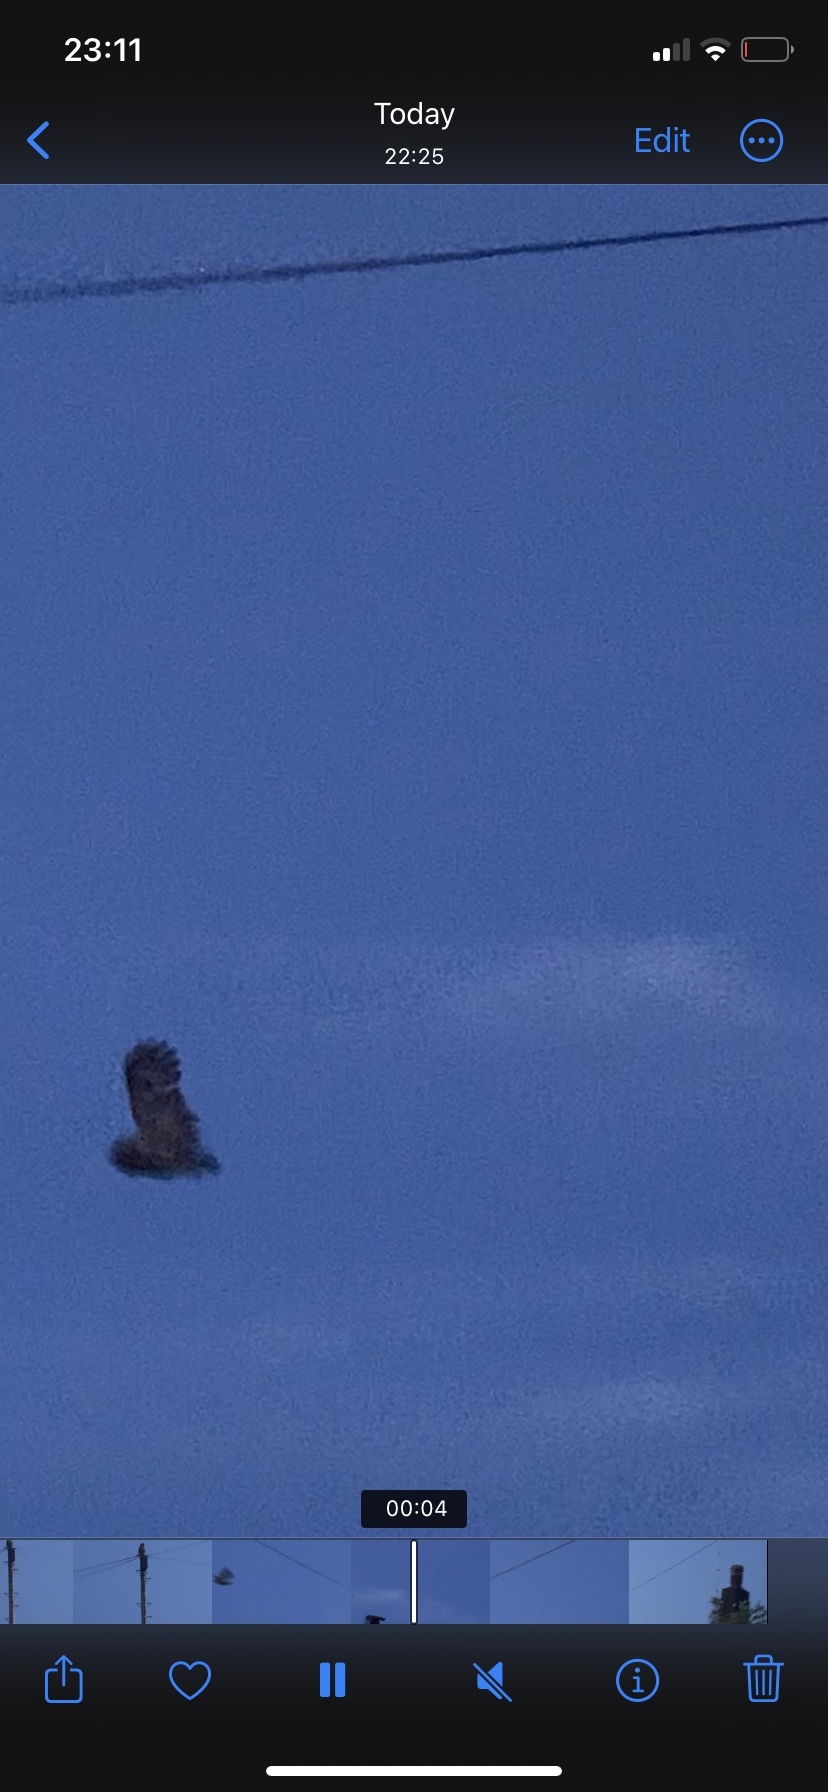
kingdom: Animalia
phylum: Chordata
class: Aves
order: Strigiformes
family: Strigidae
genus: Strix
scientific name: Strix aluco
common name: Tawny owl
